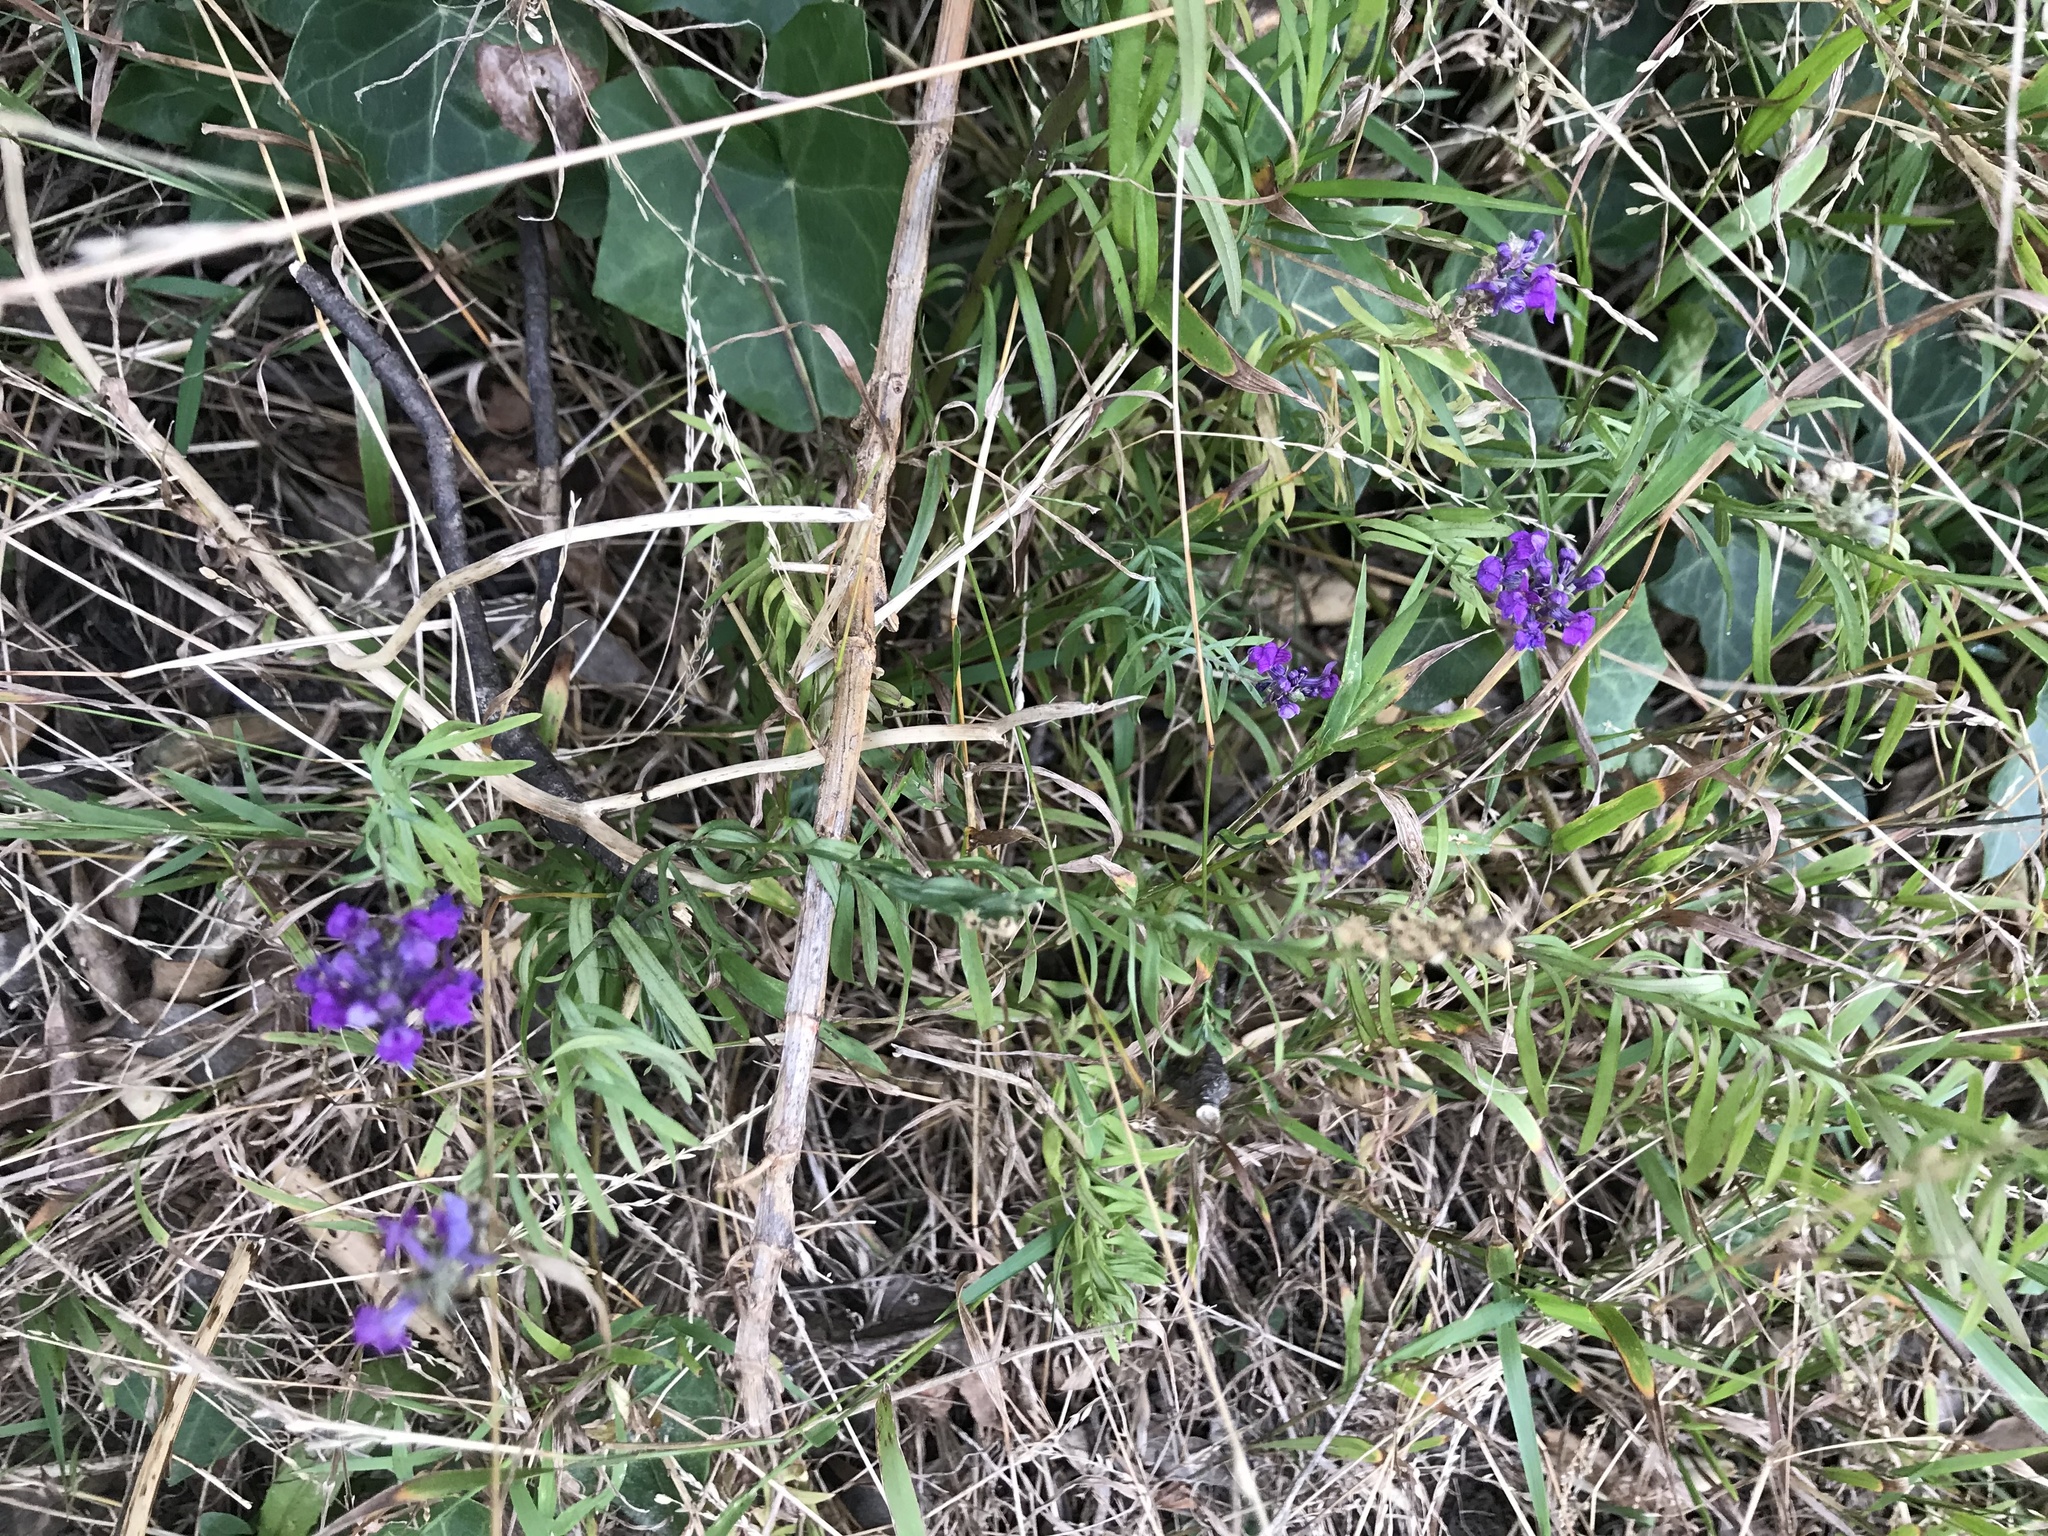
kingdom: Plantae
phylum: Tracheophyta
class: Magnoliopsida
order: Lamiales
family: Plantaginaceae
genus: Linaria
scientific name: Linaria purpurea
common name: Purple toadflax
